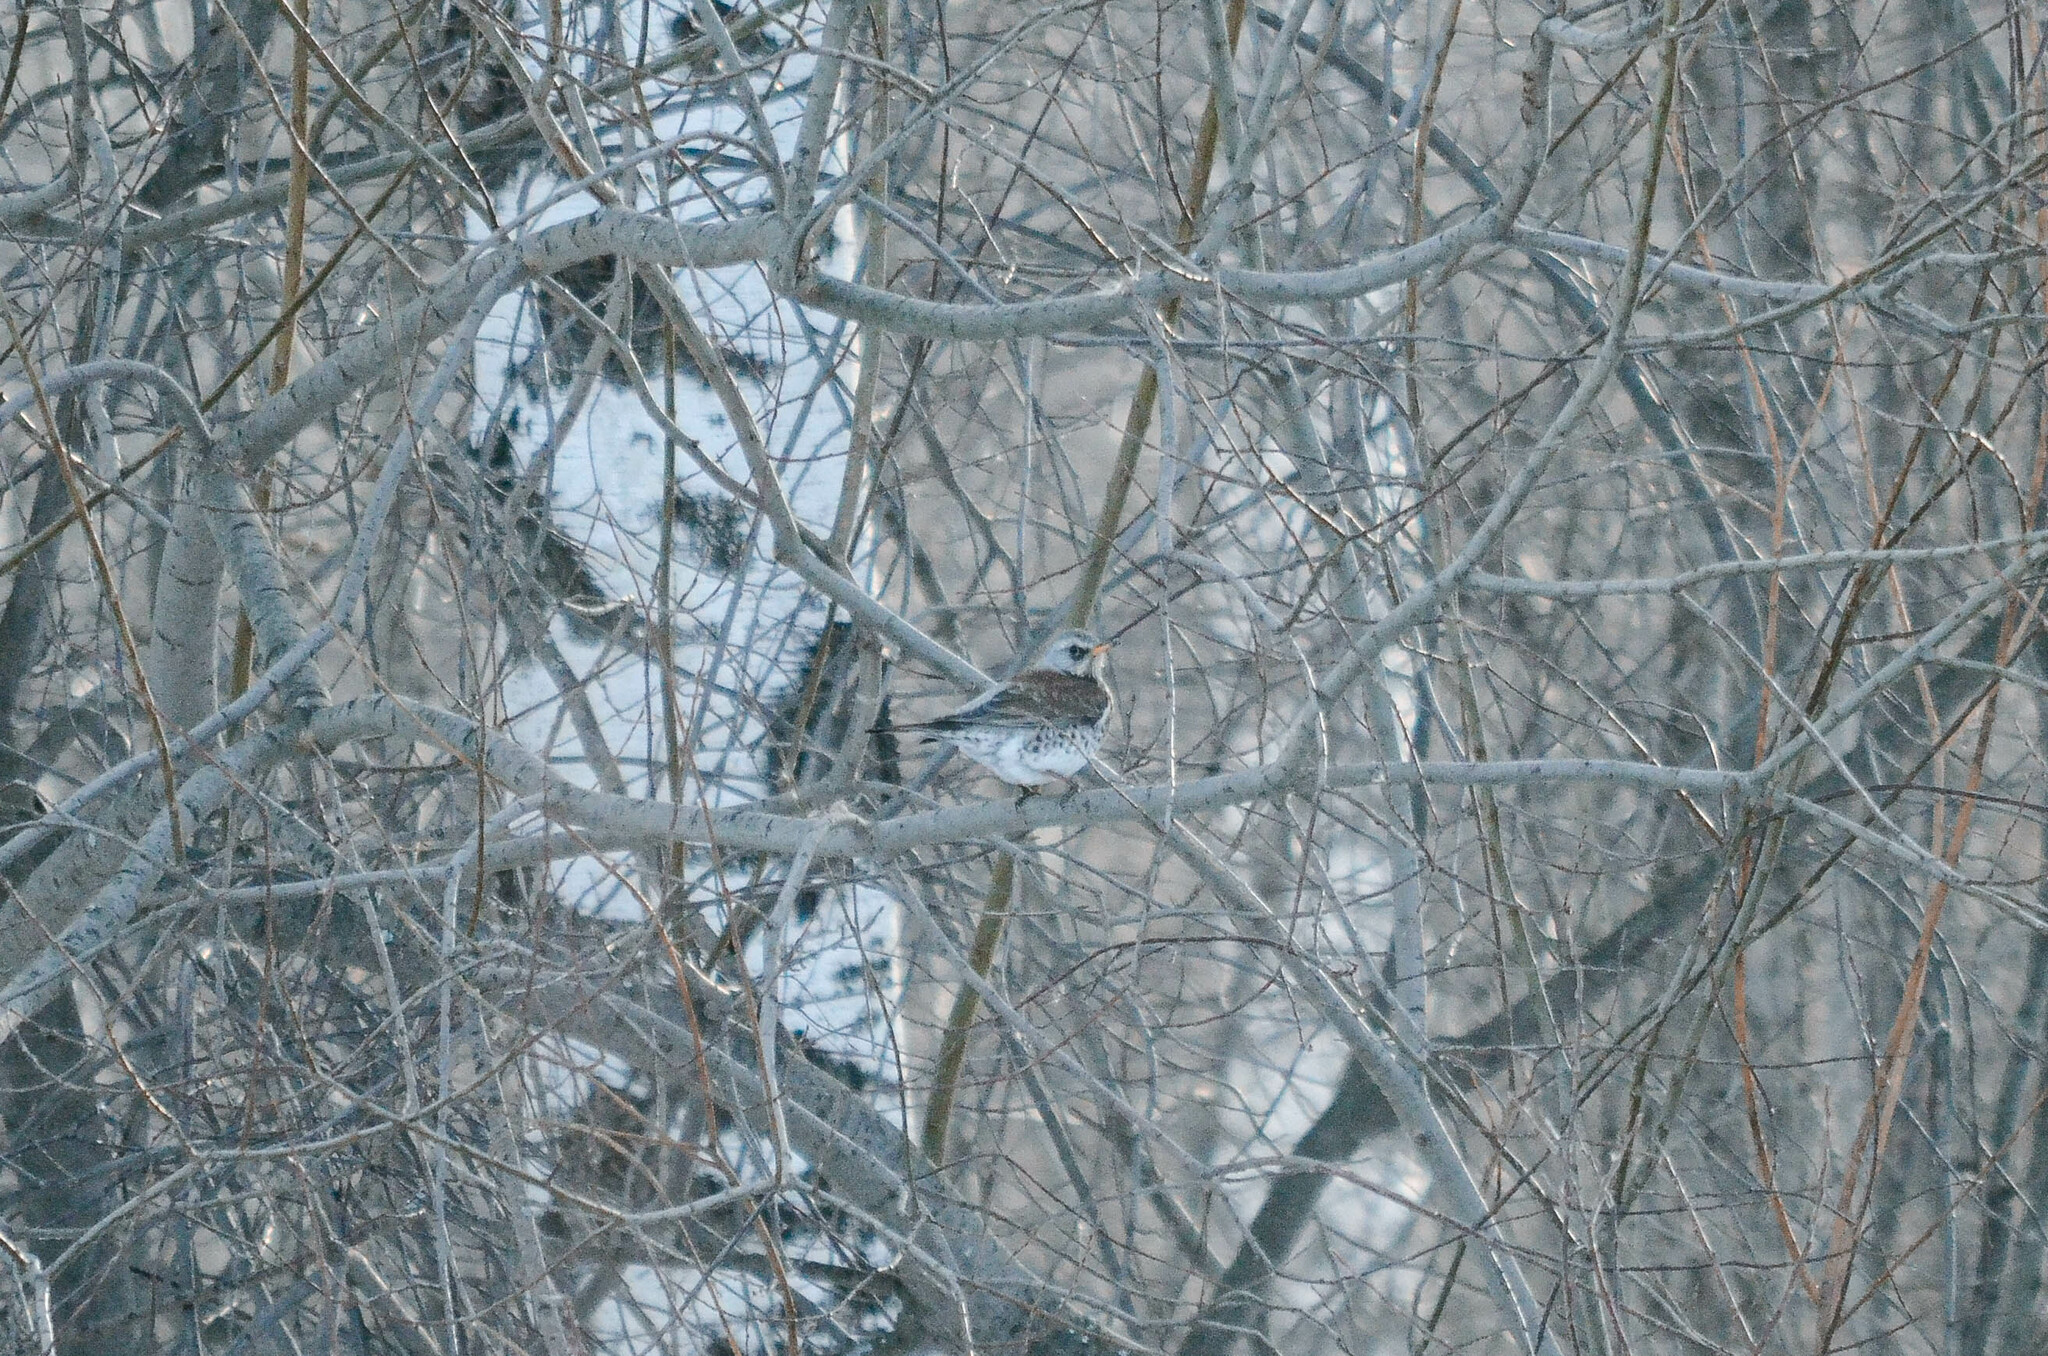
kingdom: Animalia
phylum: Chordata
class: Aves
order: Passeriformes
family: Turdidae
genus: Turdus
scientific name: Turdus pilaris
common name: Fieldfare
